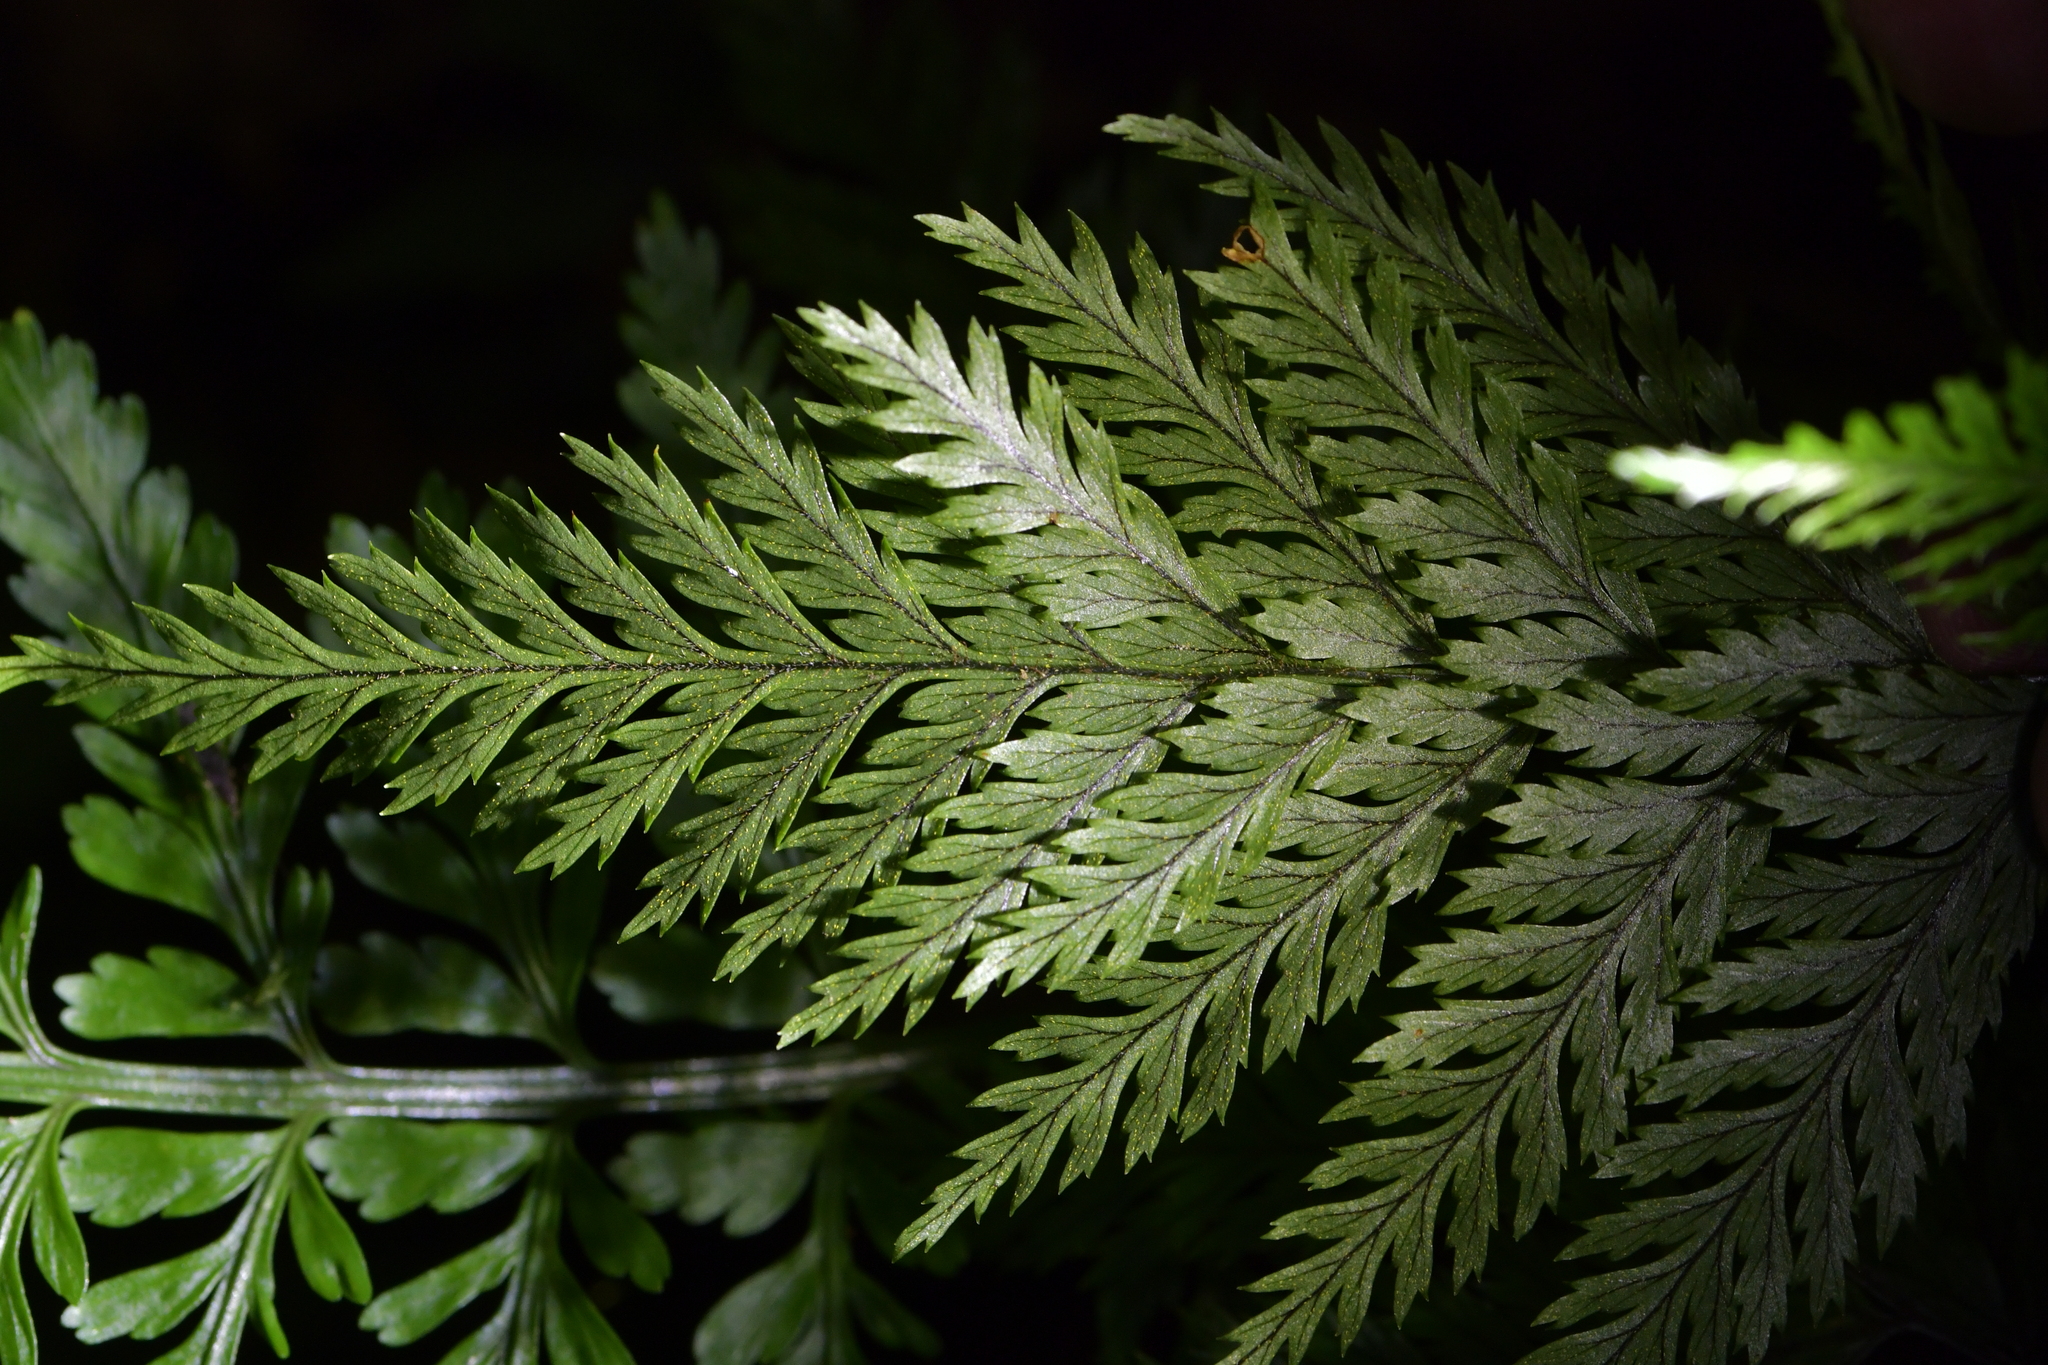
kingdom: Plantae
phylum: Tracheophyta
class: Polypodiopsida
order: Polypodiales
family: Dryopteridaceae
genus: Lastreopsis
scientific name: Lastreopsis hispida
